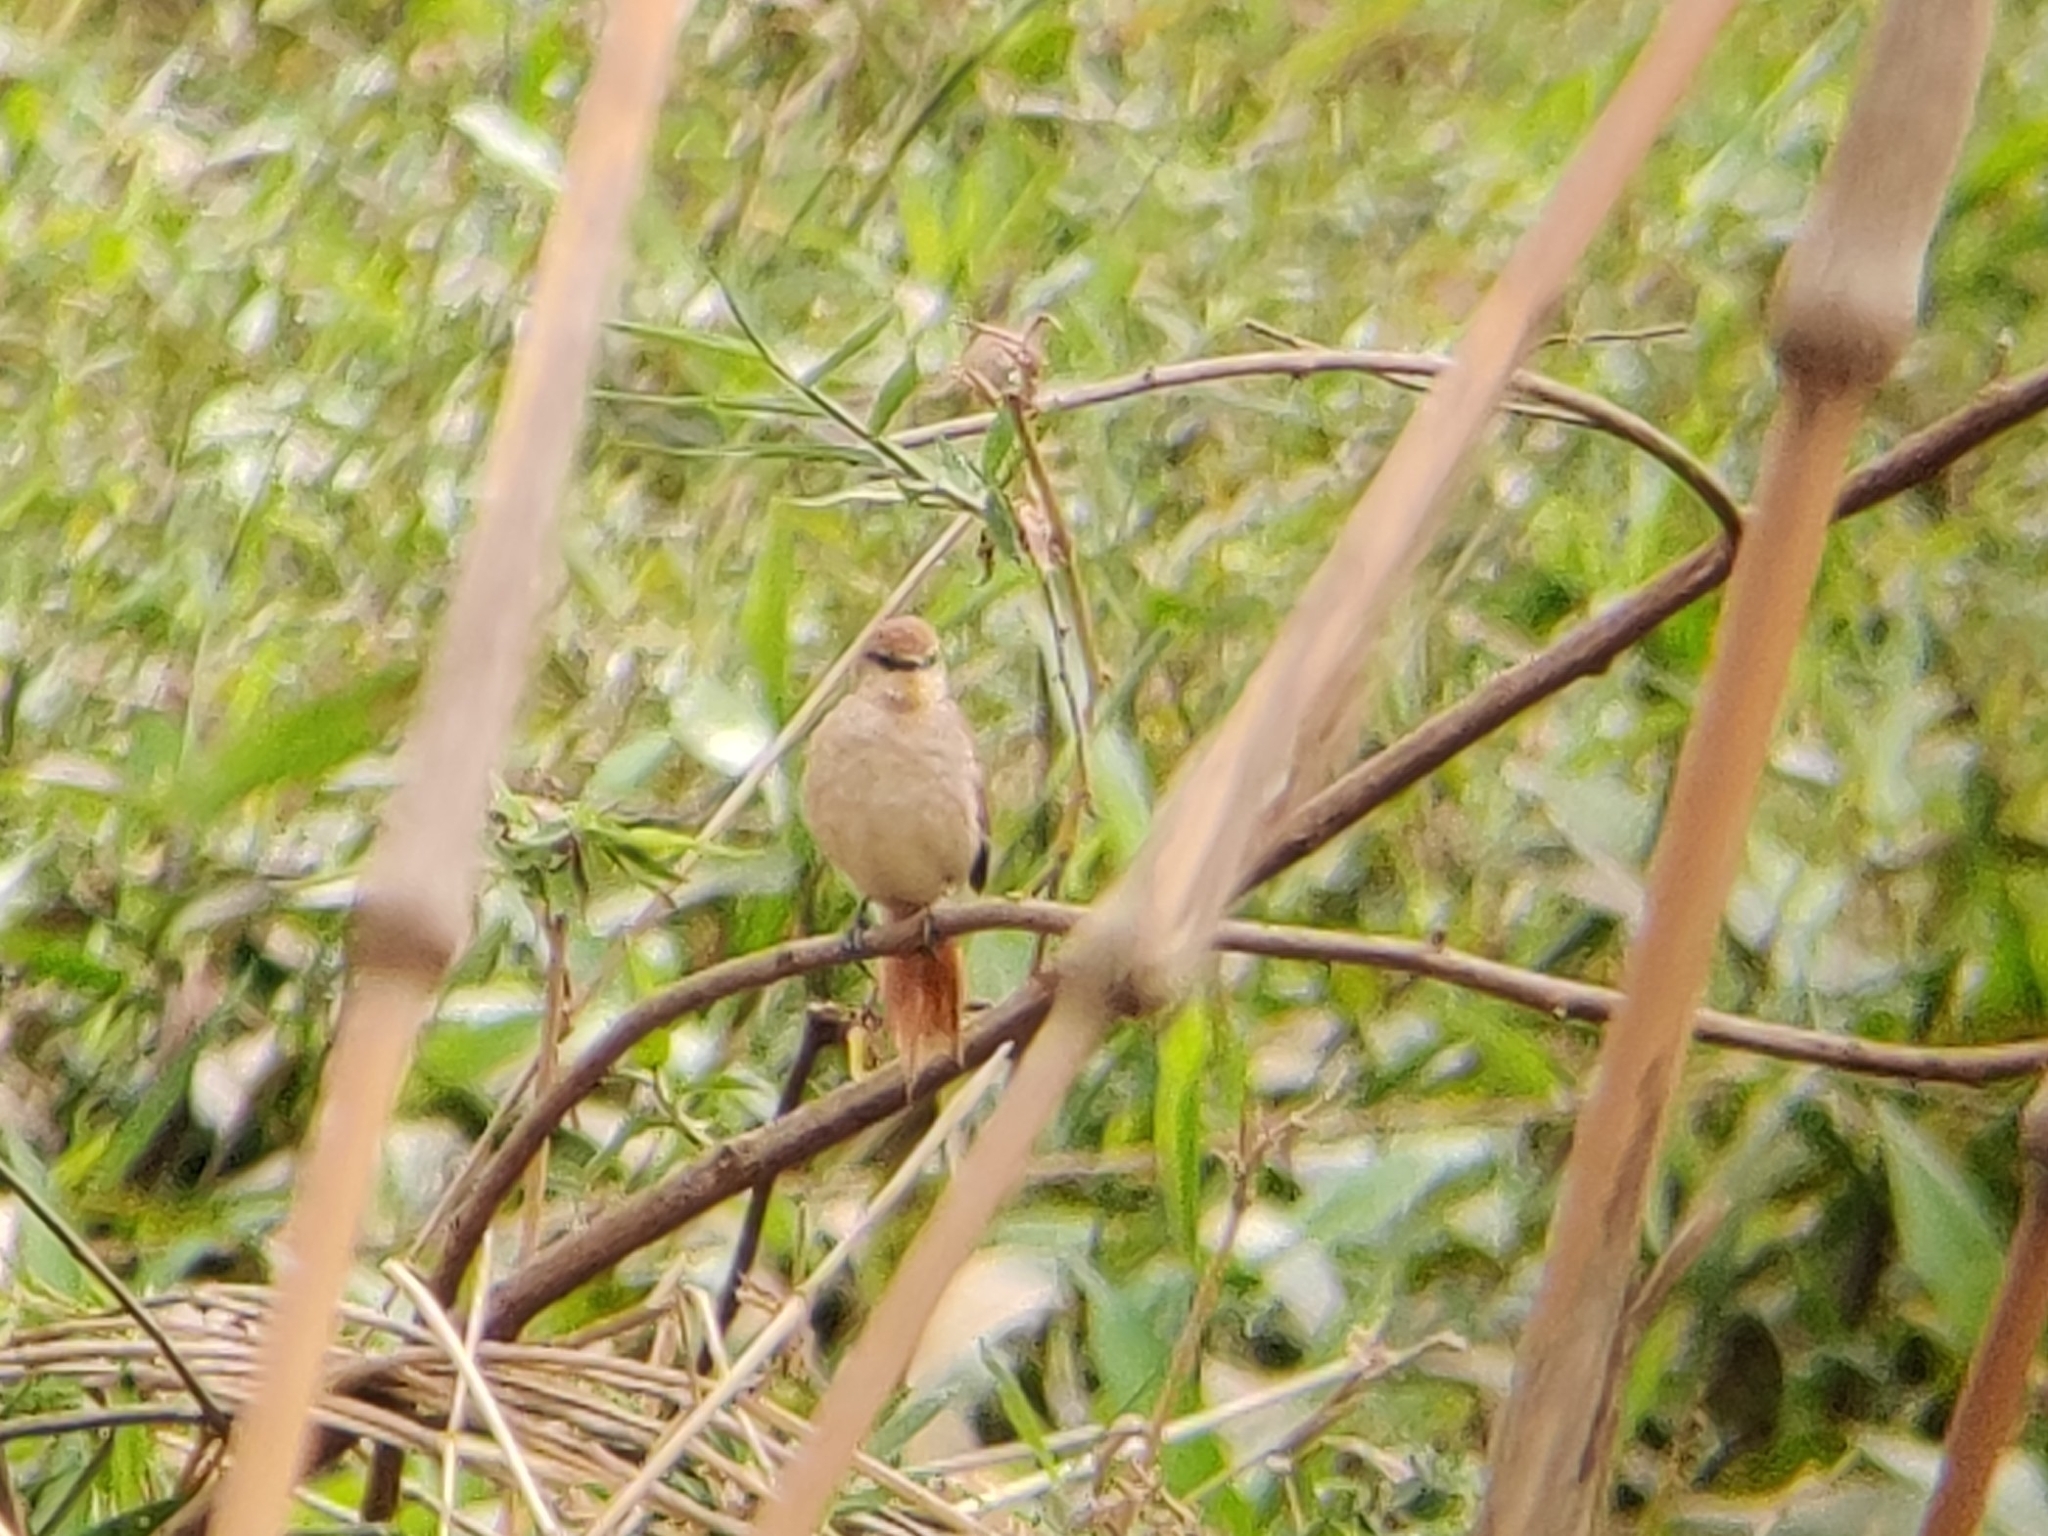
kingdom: Animalia
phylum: Chordata
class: Aves
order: Passeriformes
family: Furnariidae
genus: Certhiaxis
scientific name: Certhiaxis cinnamomeus
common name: Yellow-chinned spinetail
